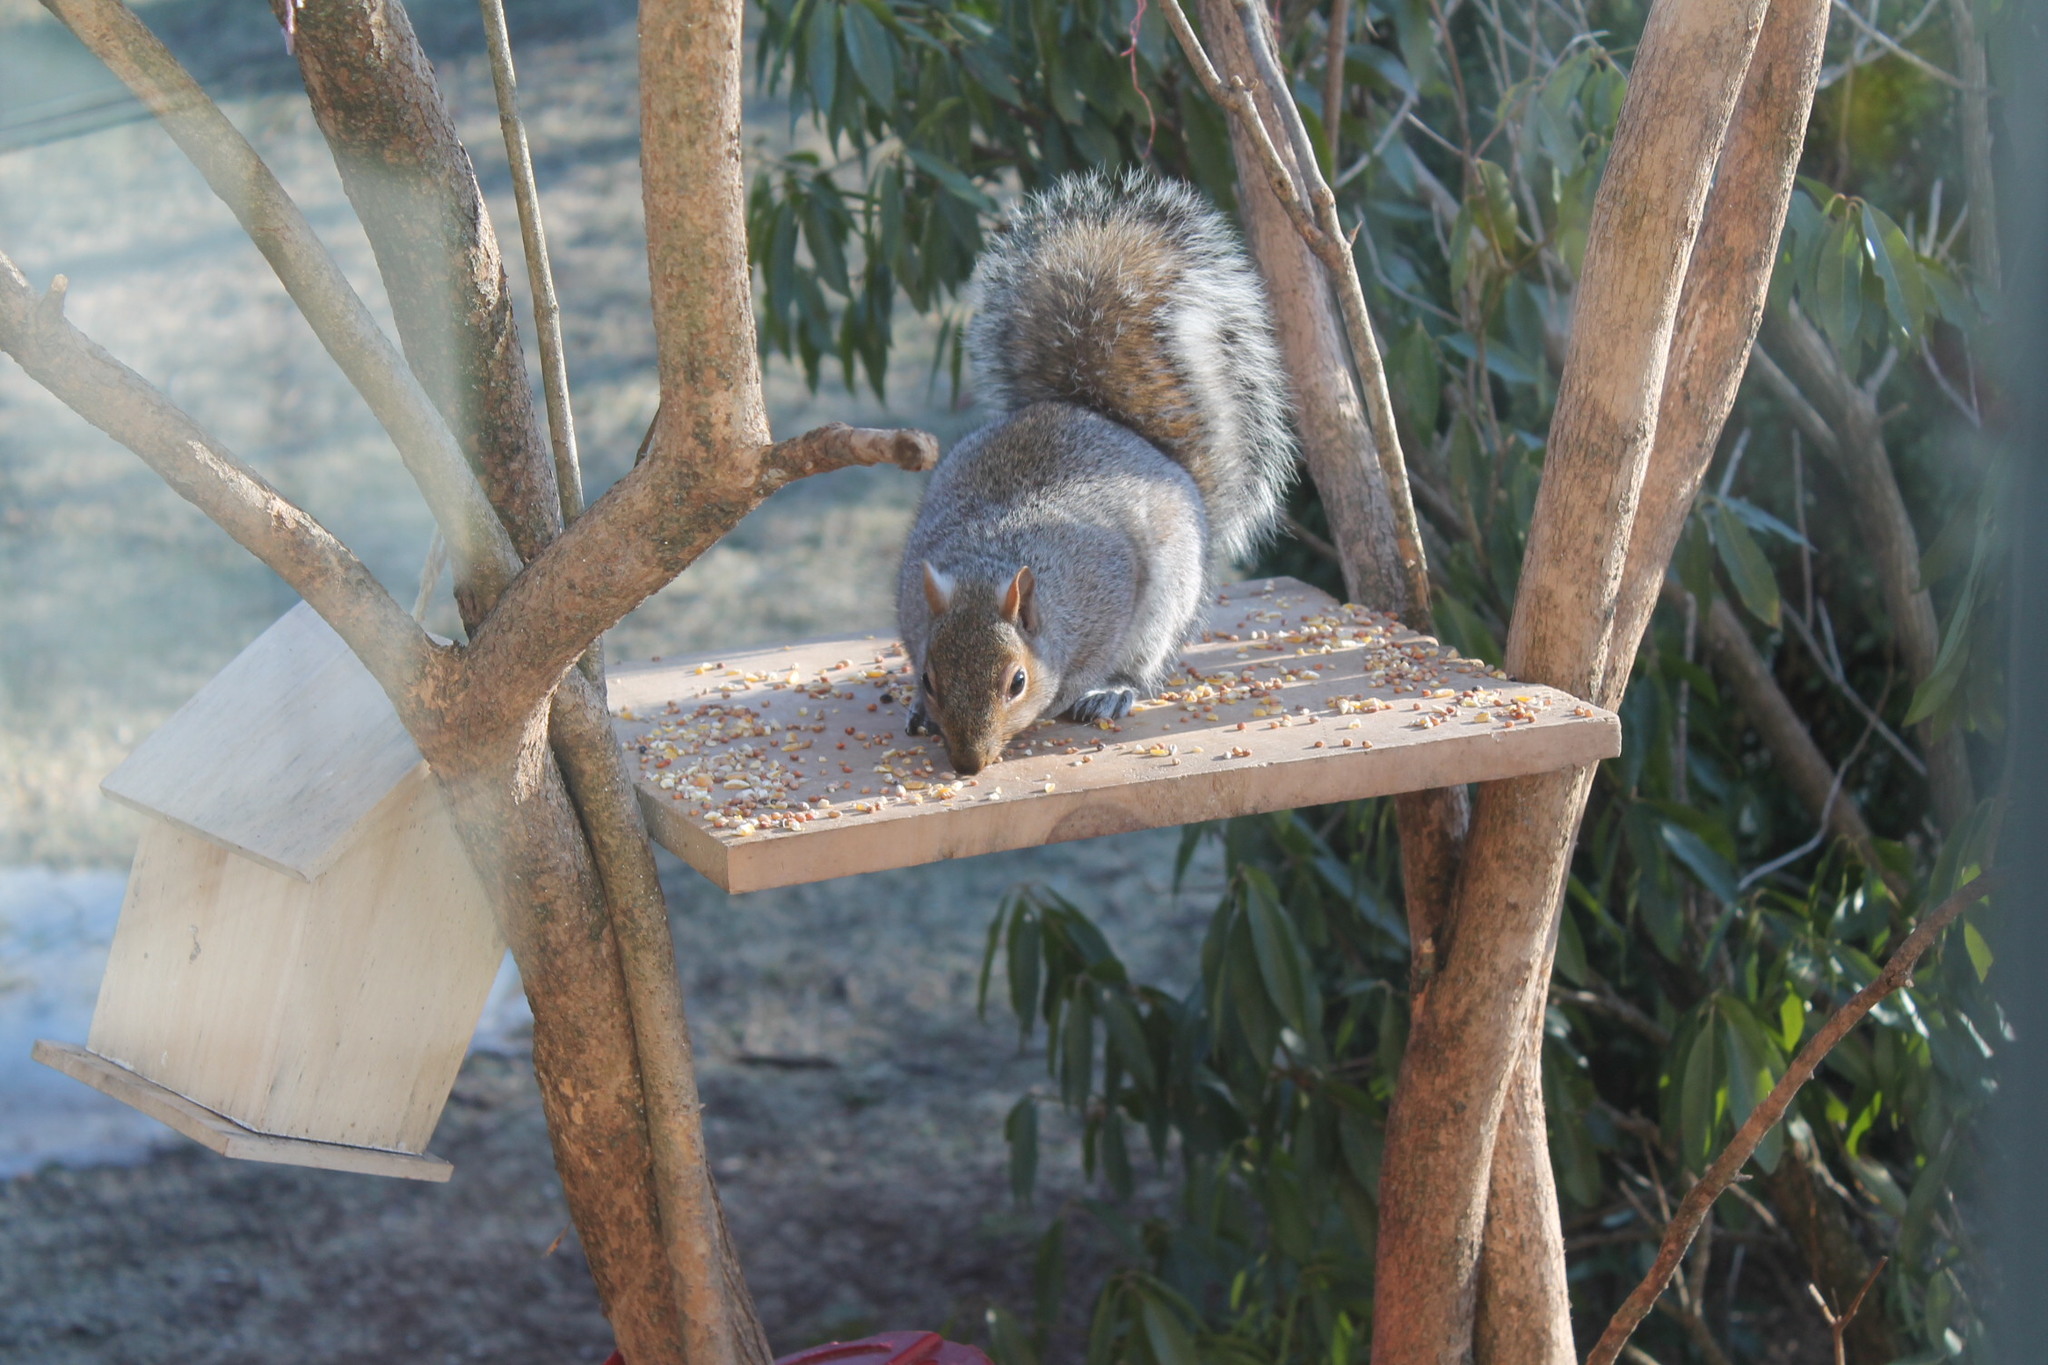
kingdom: Animalia
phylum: Chordata
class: Mammalia
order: Rodentia
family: Sciuridae
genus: Sciurus
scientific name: Sciurus carolinensis
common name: Eastern gray squirrel
